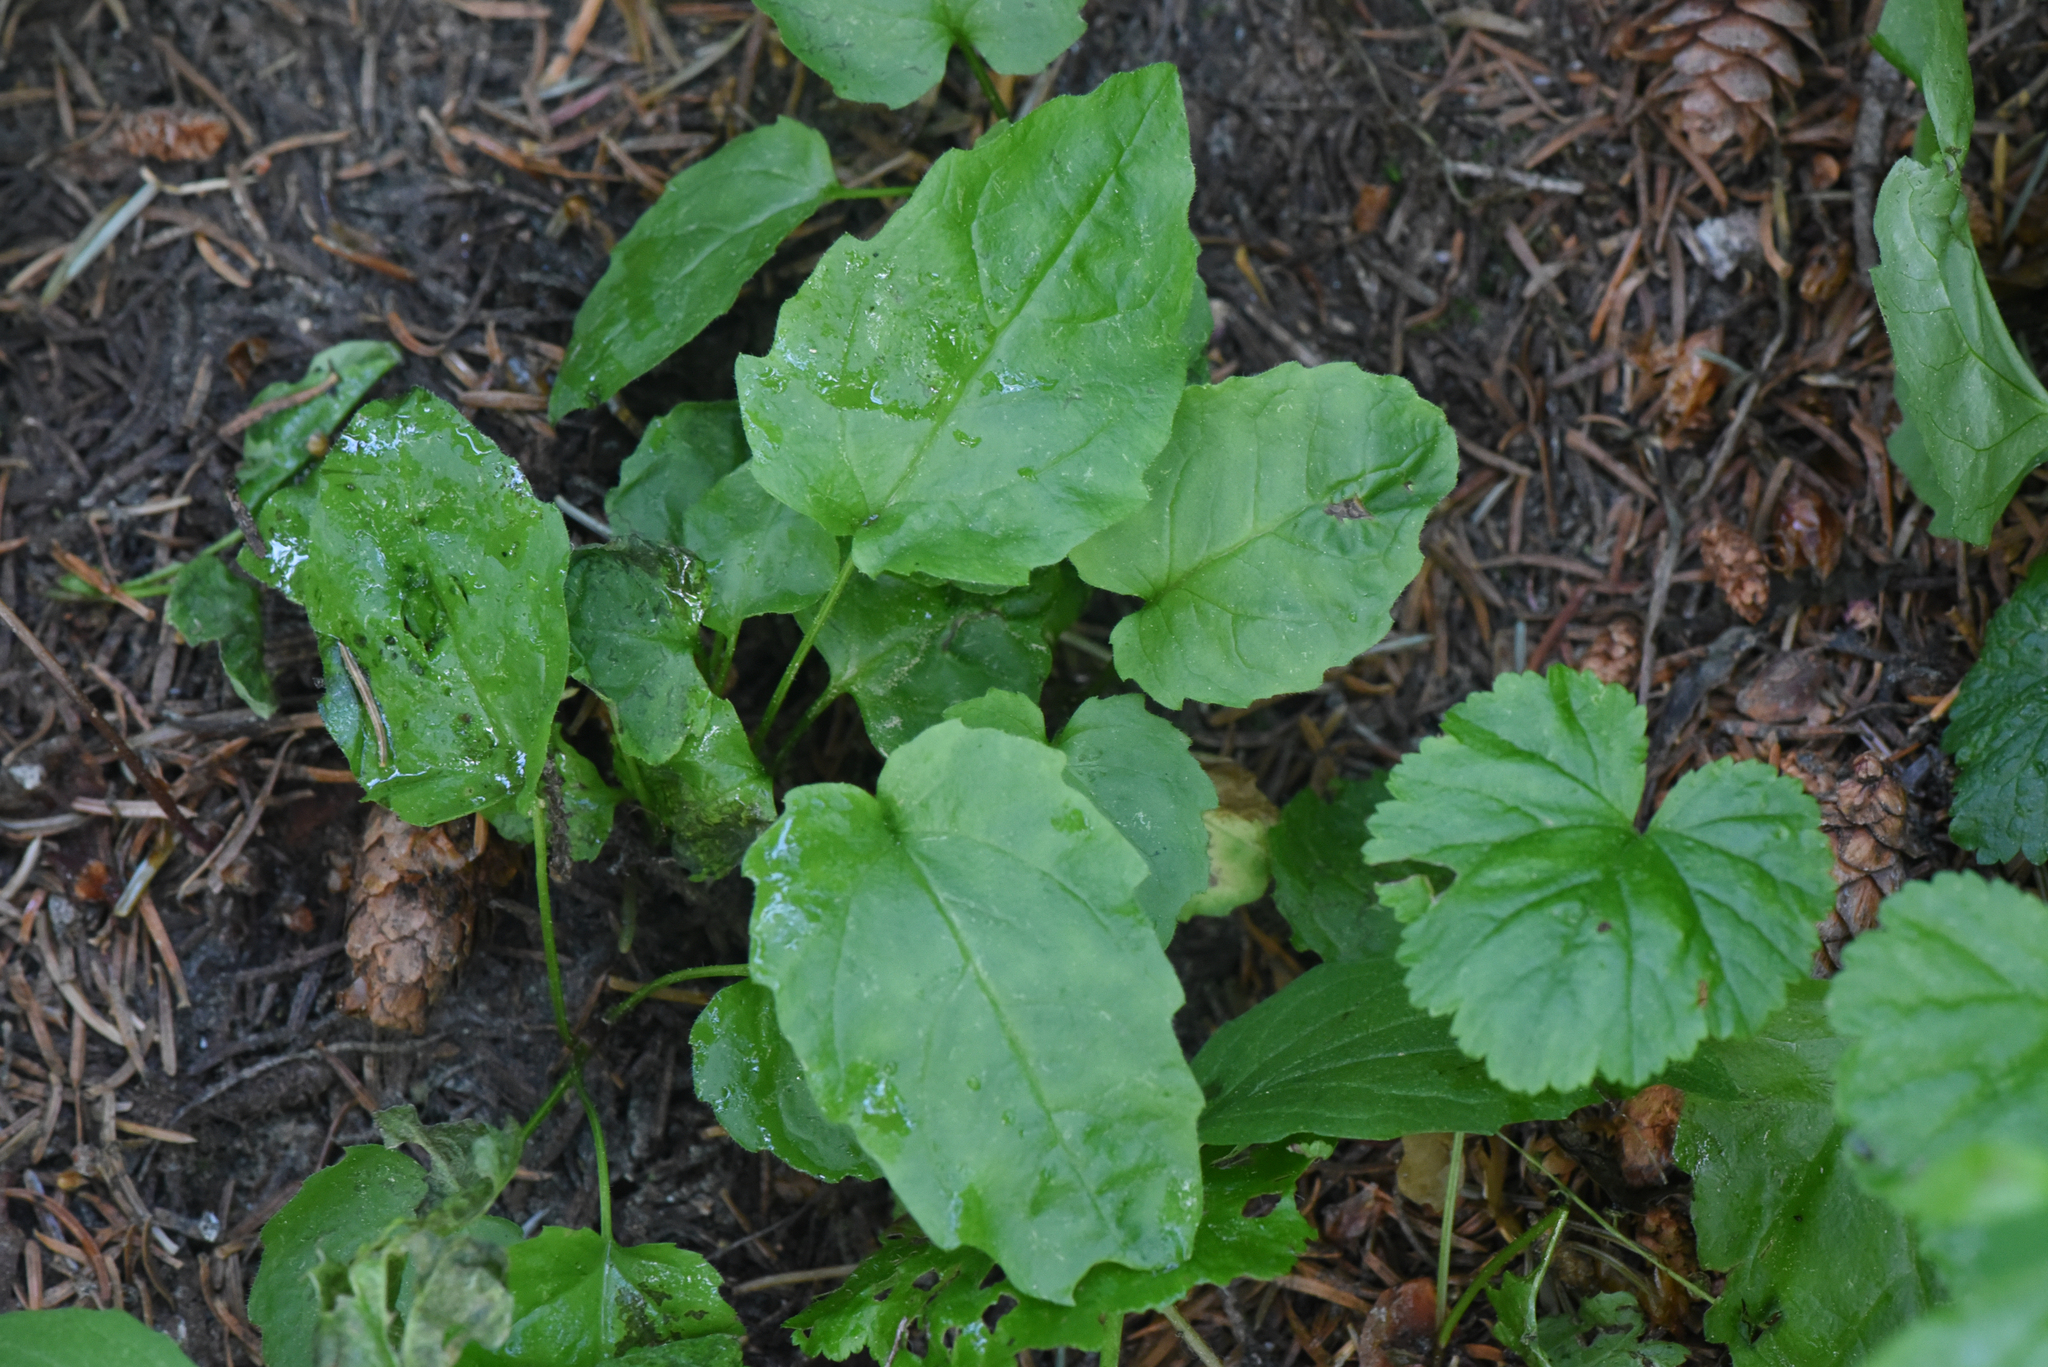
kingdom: Plantae
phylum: Tracheophyta
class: Magnoliopsida
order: Asterales
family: Asteraceae
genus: Arnica
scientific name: Arnica latifolia
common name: Arnica
